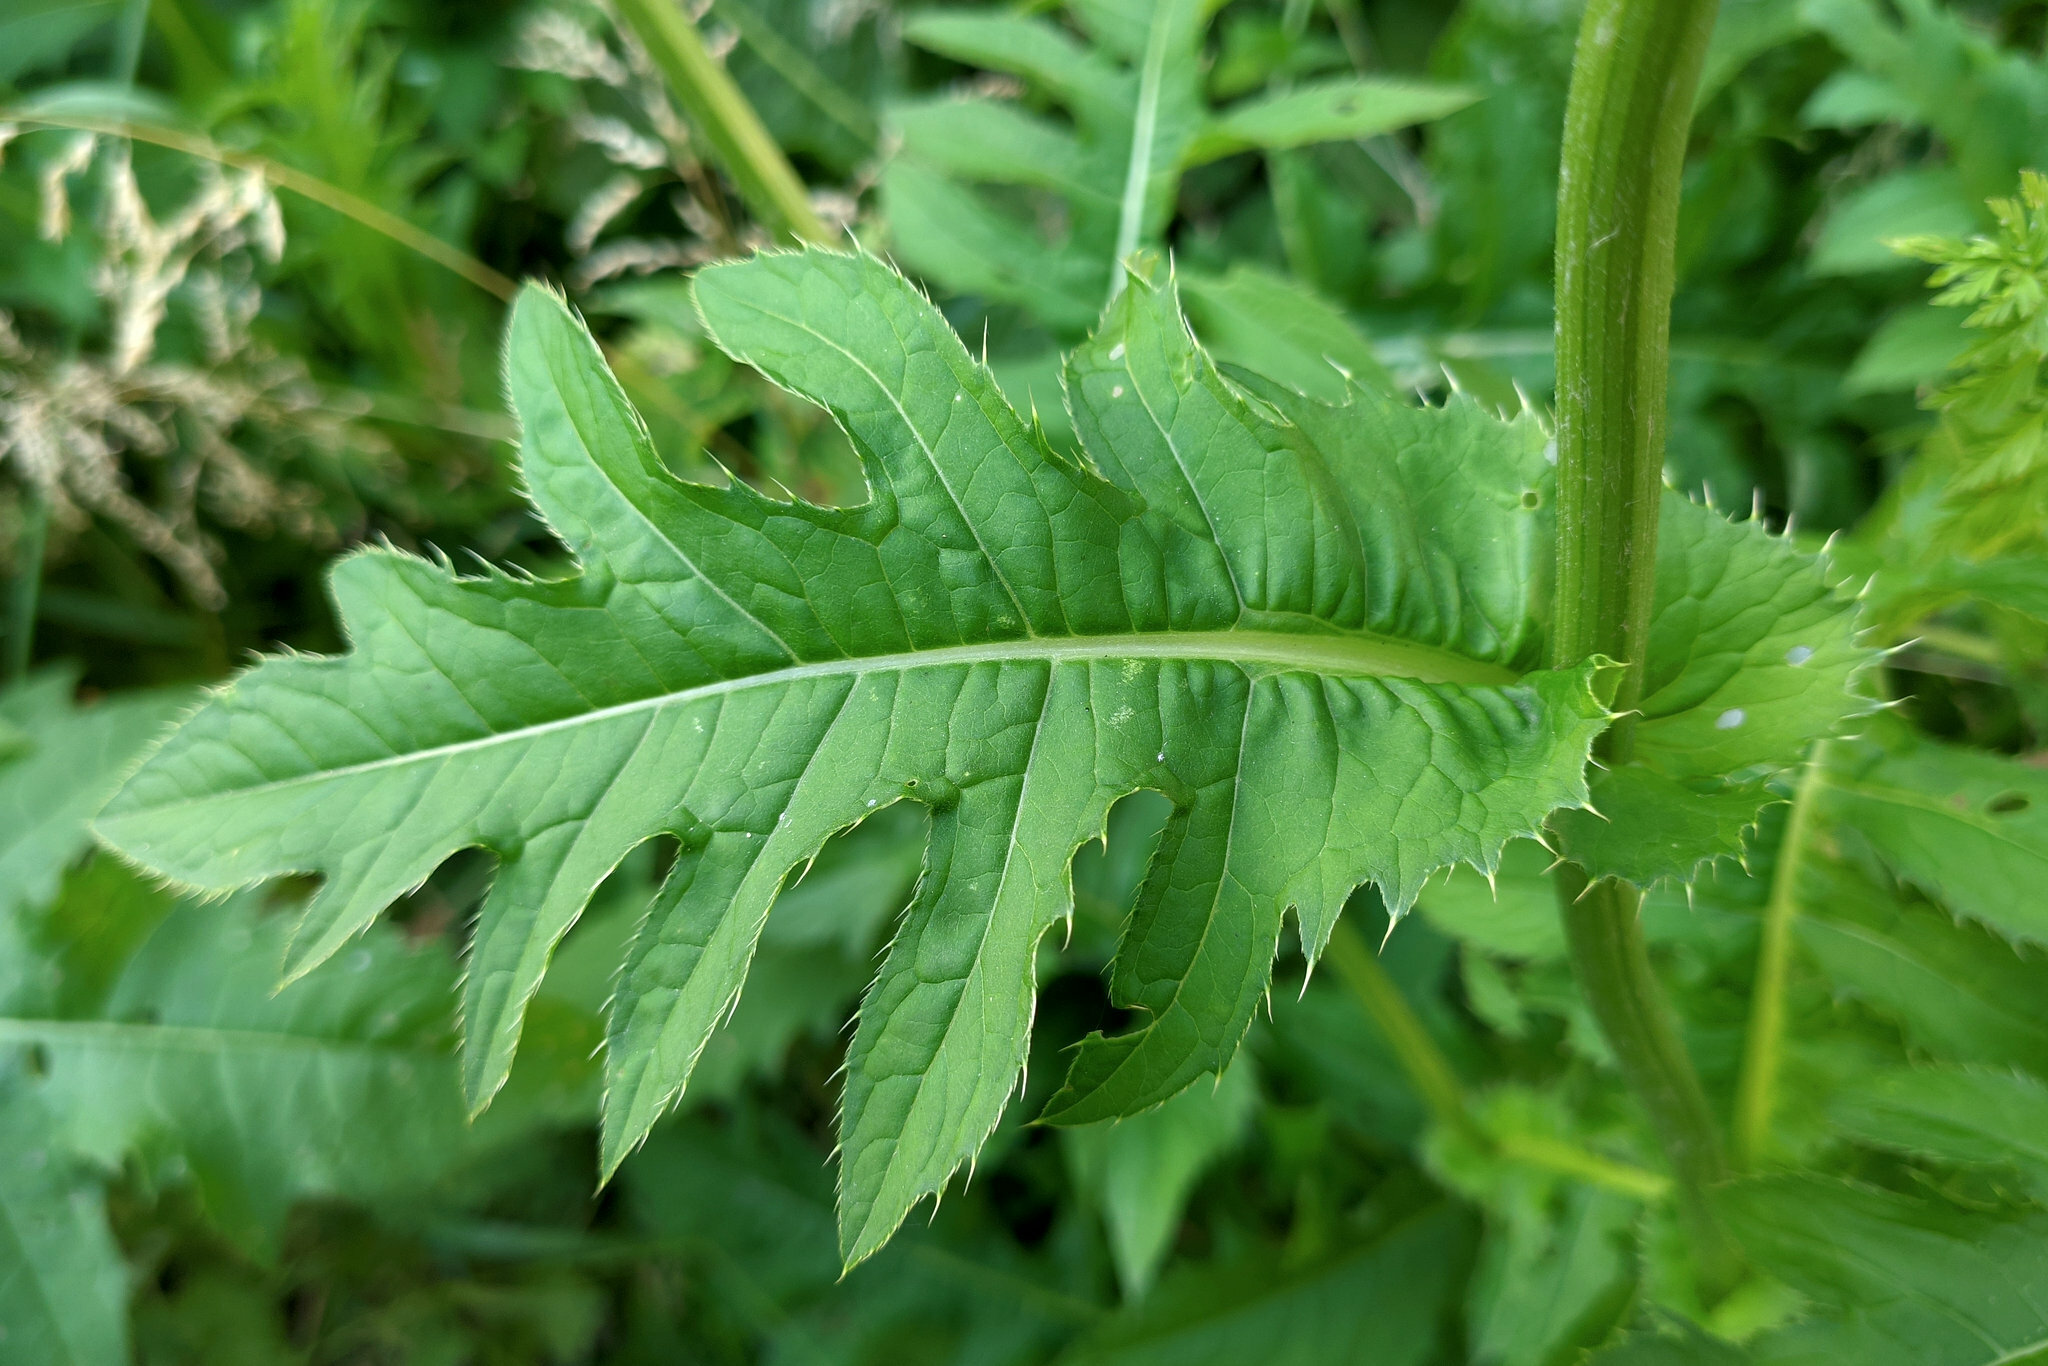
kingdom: Plantae
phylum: Tracheophyta
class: Magnoliopsida
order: Asterales
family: Asteraceae
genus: Cirsium
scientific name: Cirsium oleraceum
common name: Cabbage thistle
